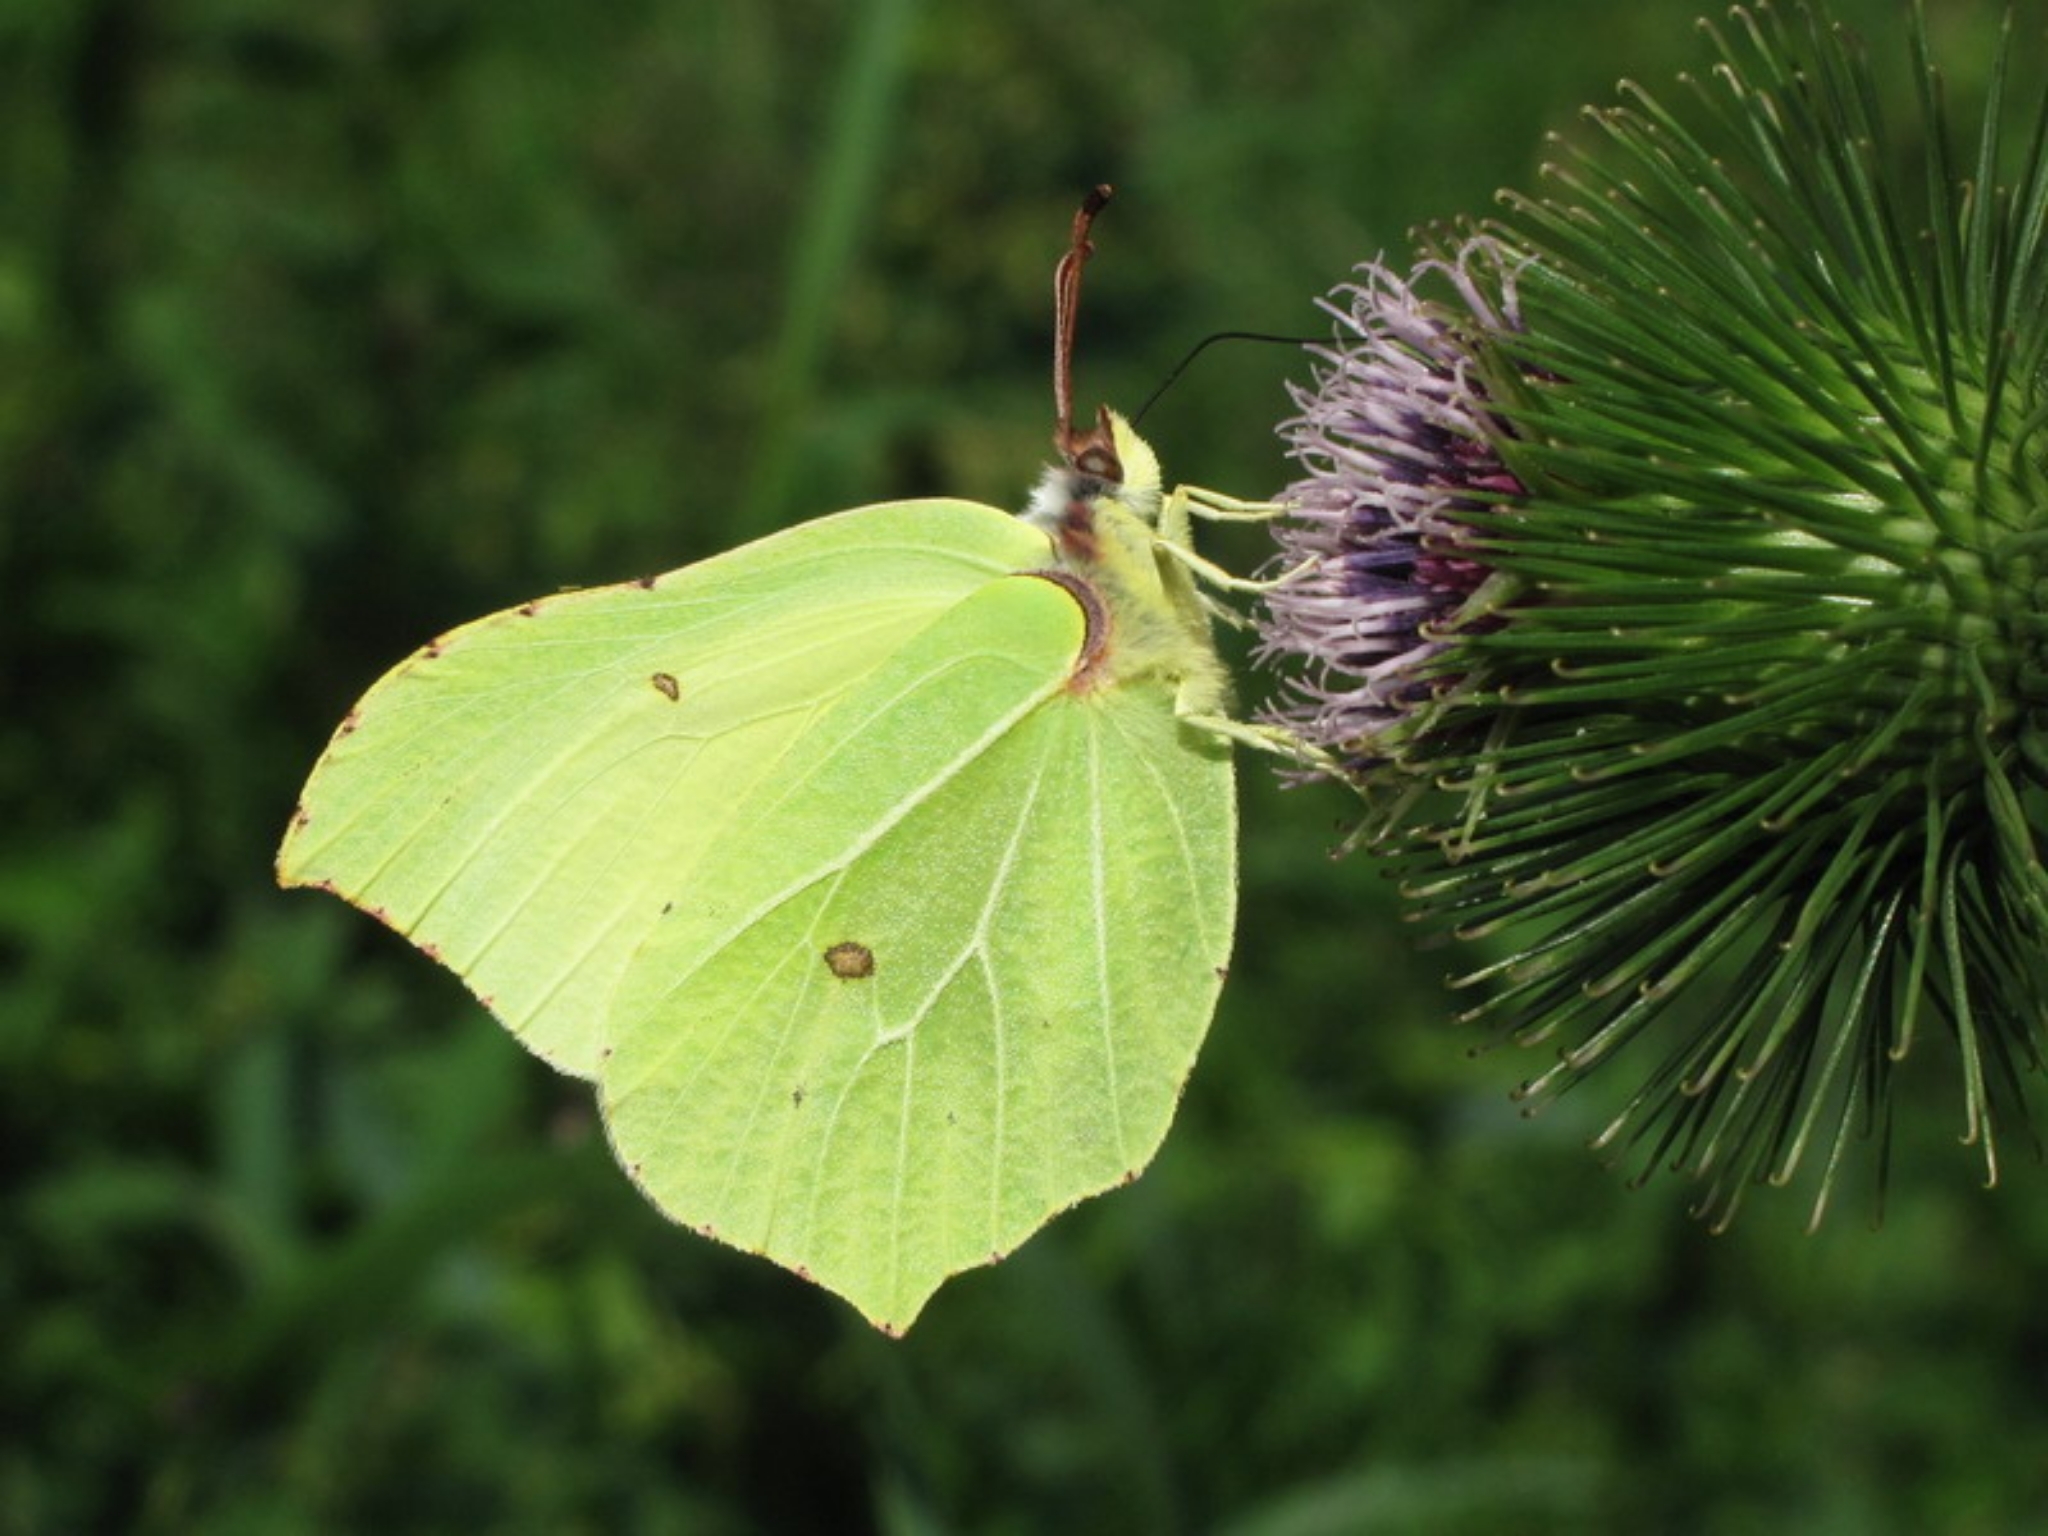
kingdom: Animalia
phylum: Arthropoda
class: Insecta
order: Lepidoptera
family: Pieridae
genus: Gonepteryx
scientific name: Gonepteryx rhamni
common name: Brimstone
